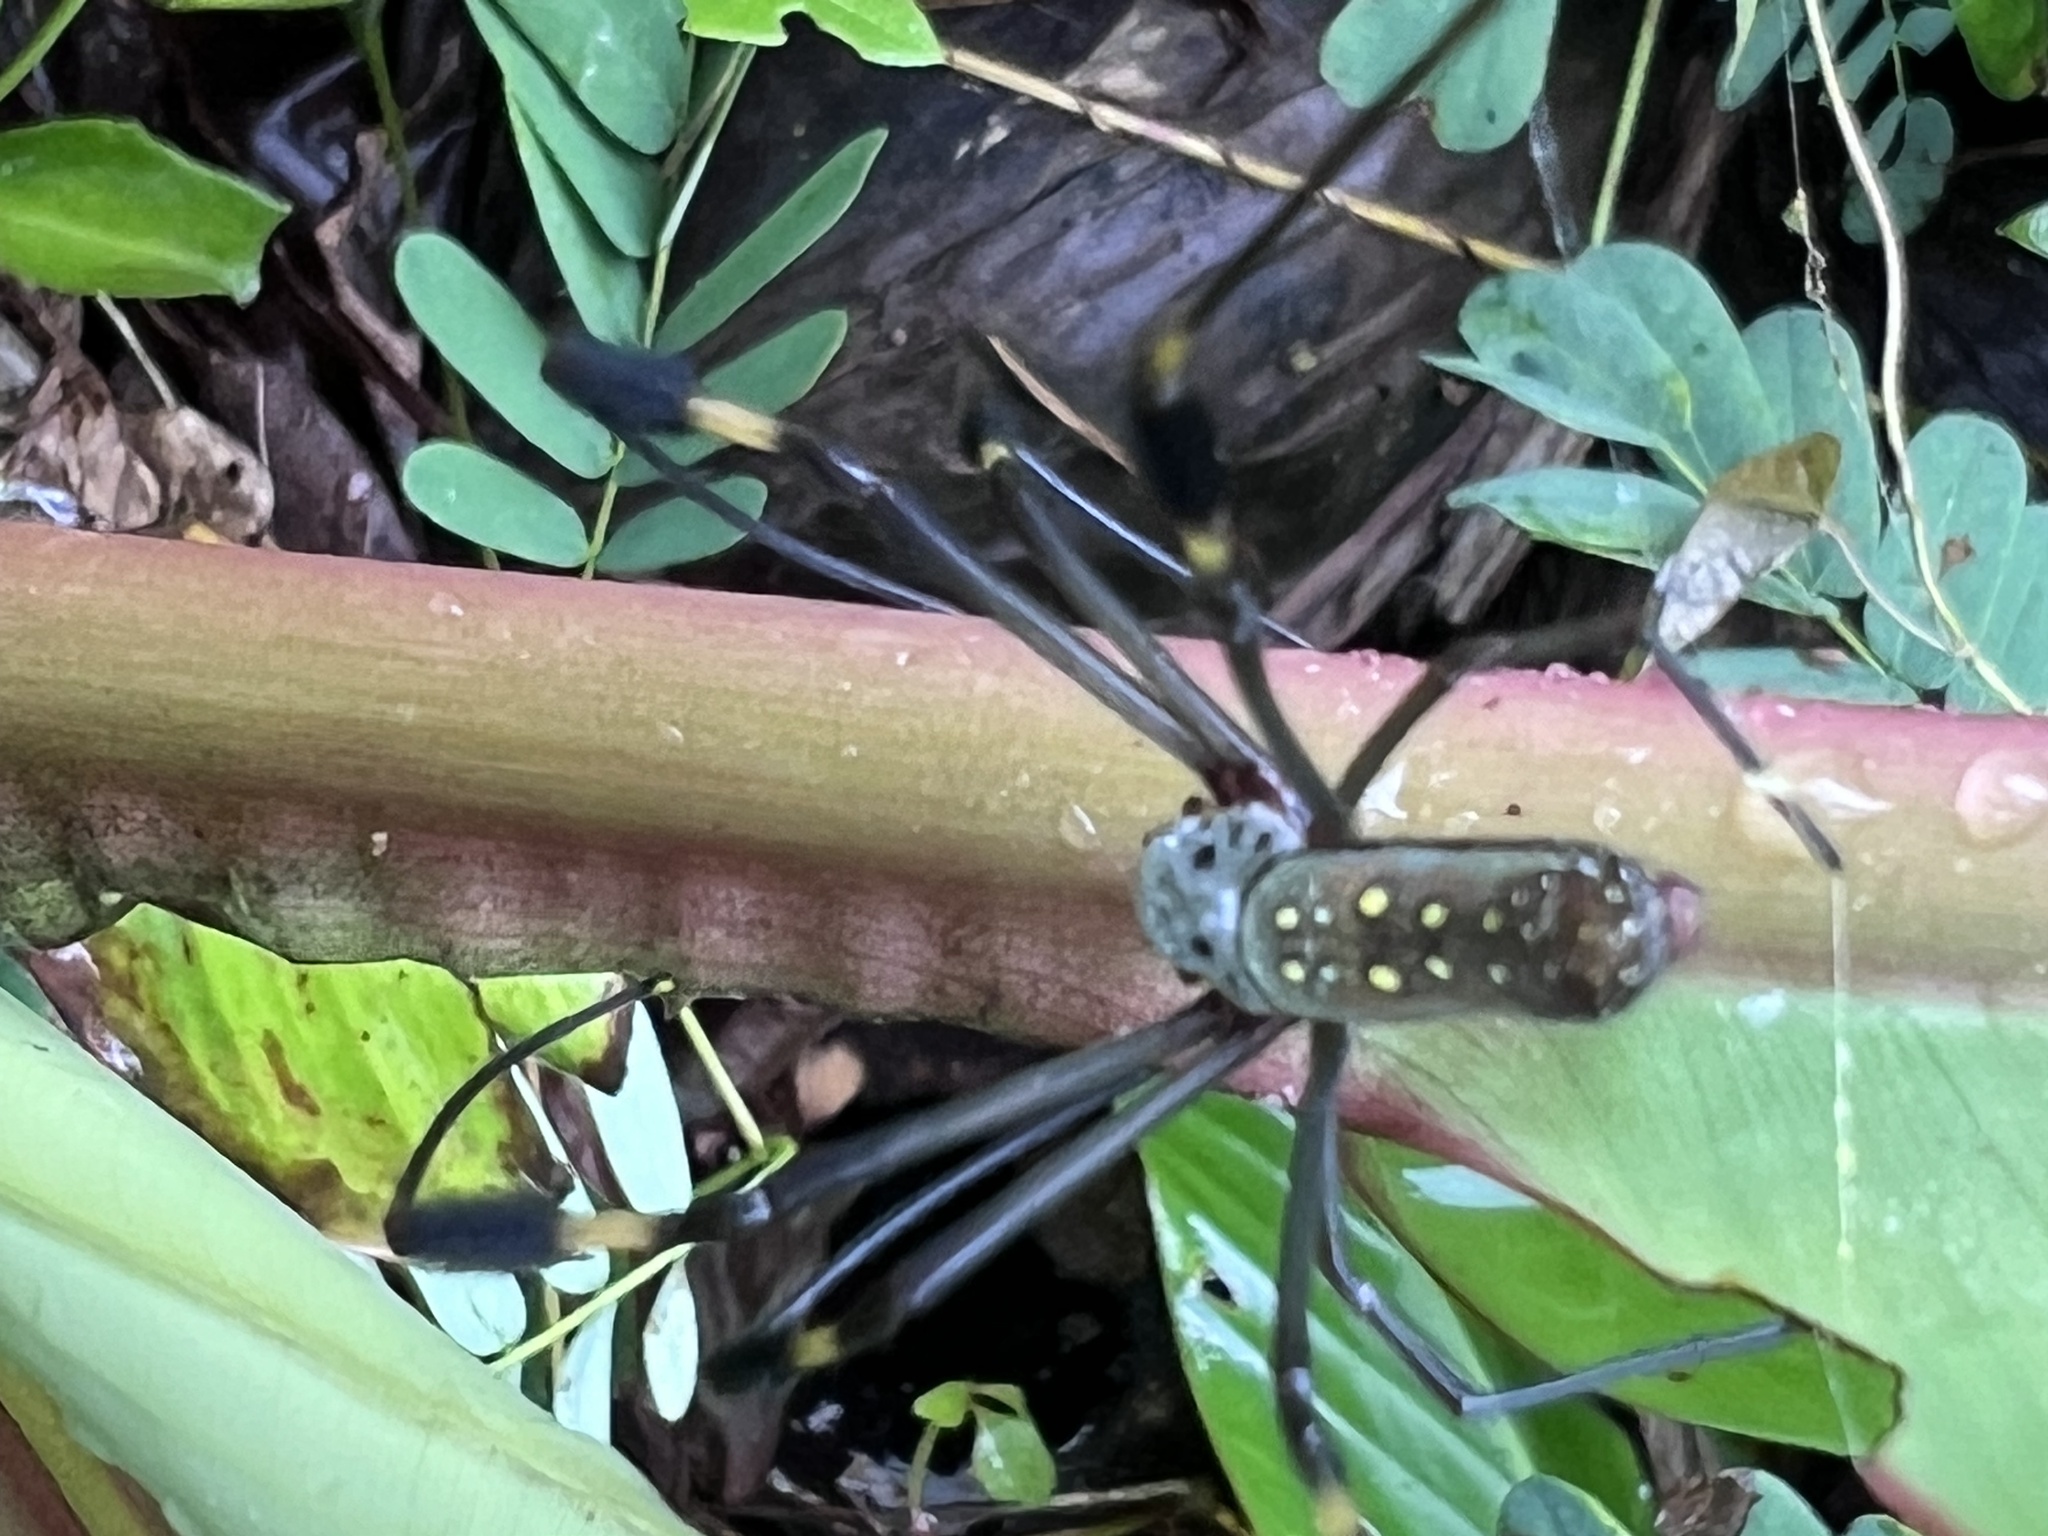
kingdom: Animalia
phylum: Arthropoda
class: Arachnida
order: Araneae
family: Araneidae
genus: Trichonephila
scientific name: Trichonephila clavipes
